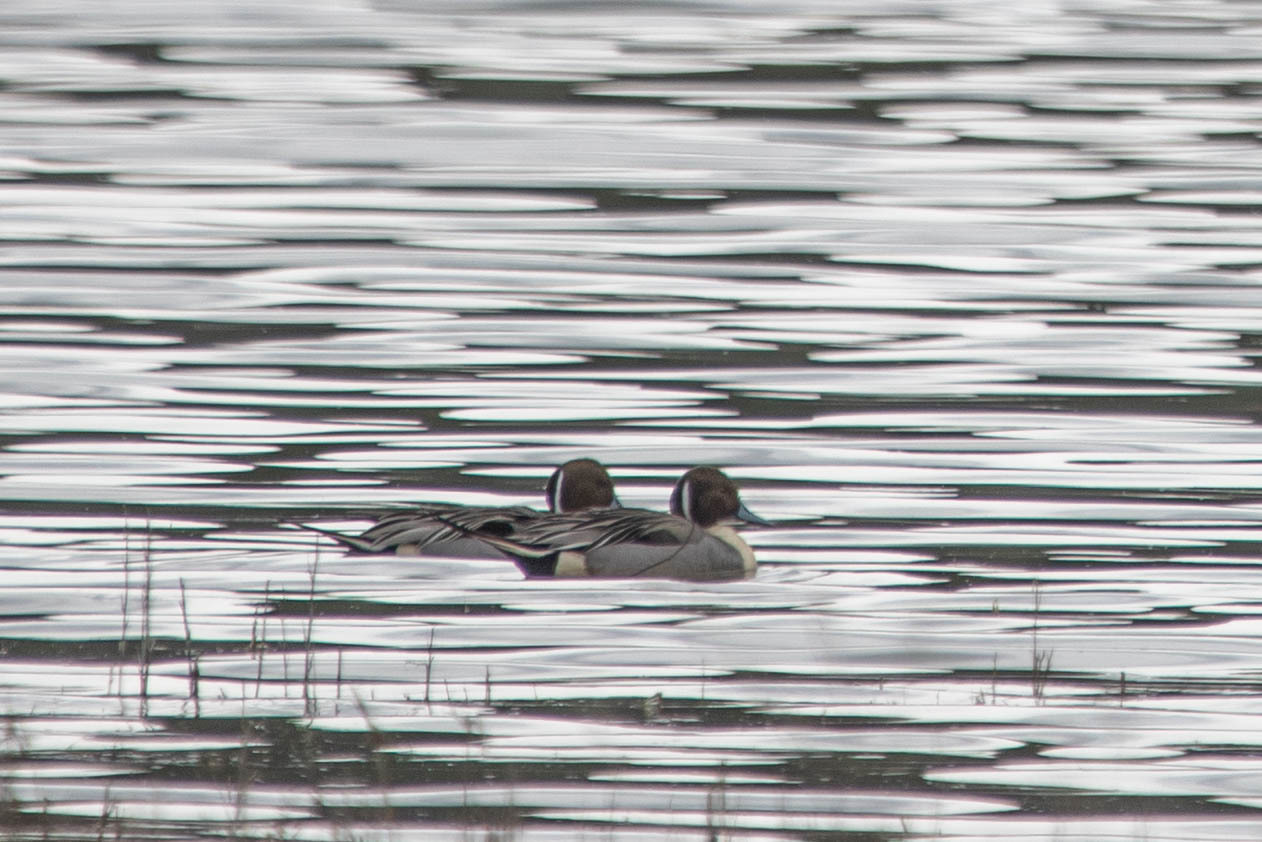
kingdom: Animalia
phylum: Chordata
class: Aves
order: Anseriformes
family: Anatidae
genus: Anas
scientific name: Anas acuta
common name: Northern pintail
